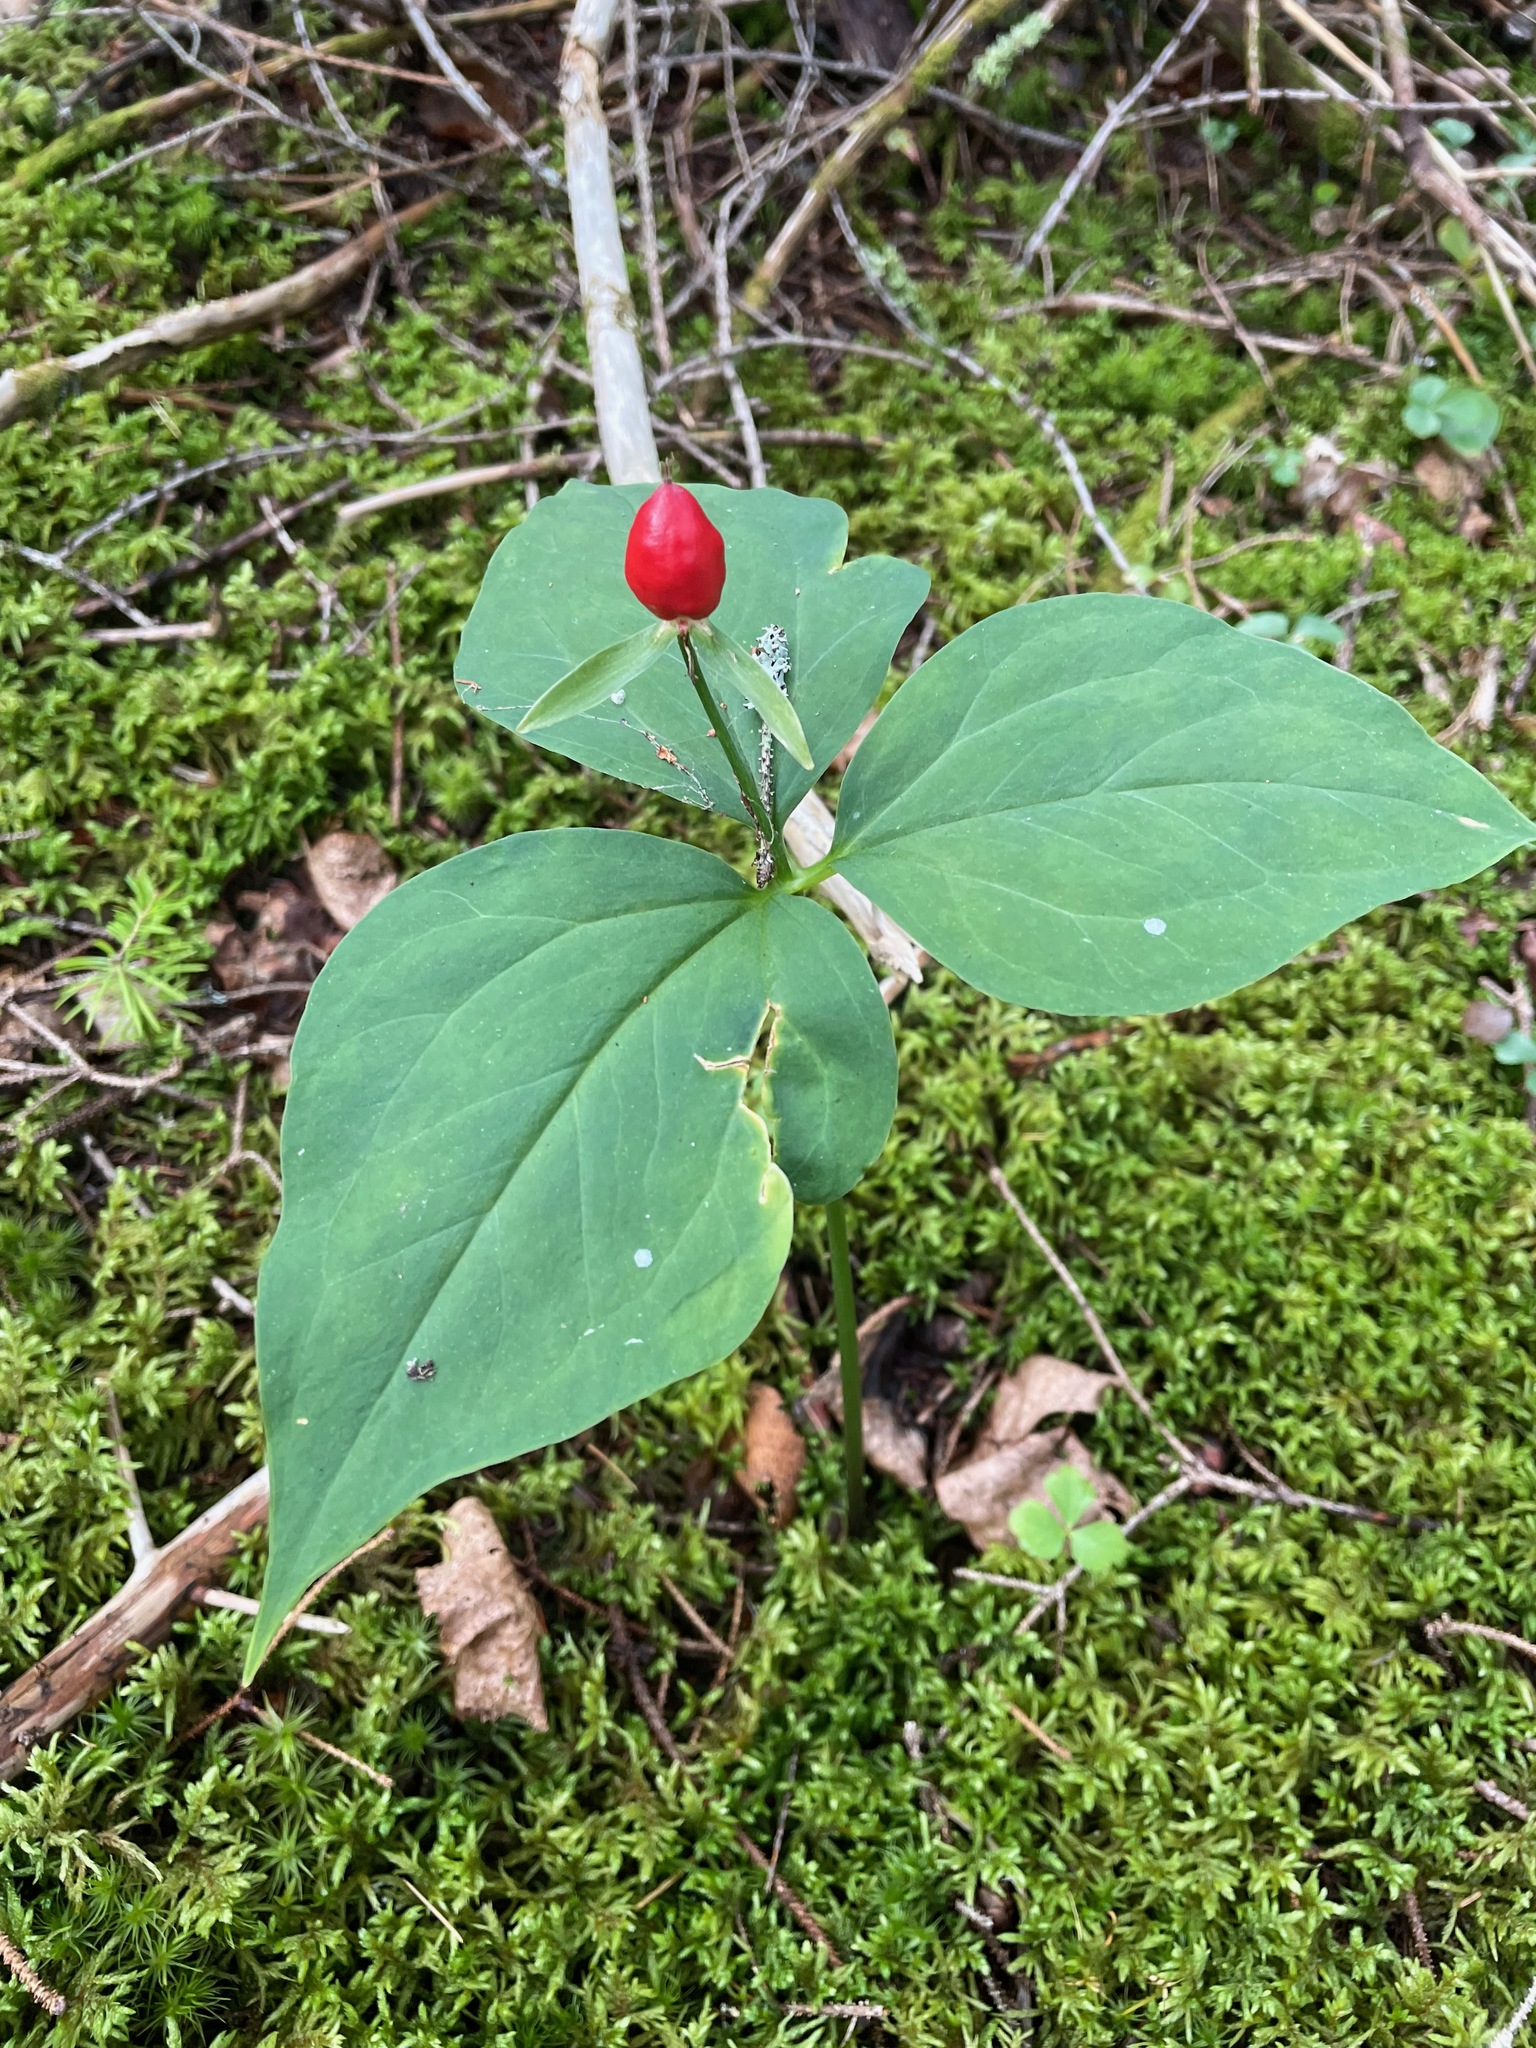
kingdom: Plantae
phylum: Tracheophyta
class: Liliopsida
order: Liliales
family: Melanthiaceae
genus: Trillium
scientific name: Trillium undulatum
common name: Paint trillium
